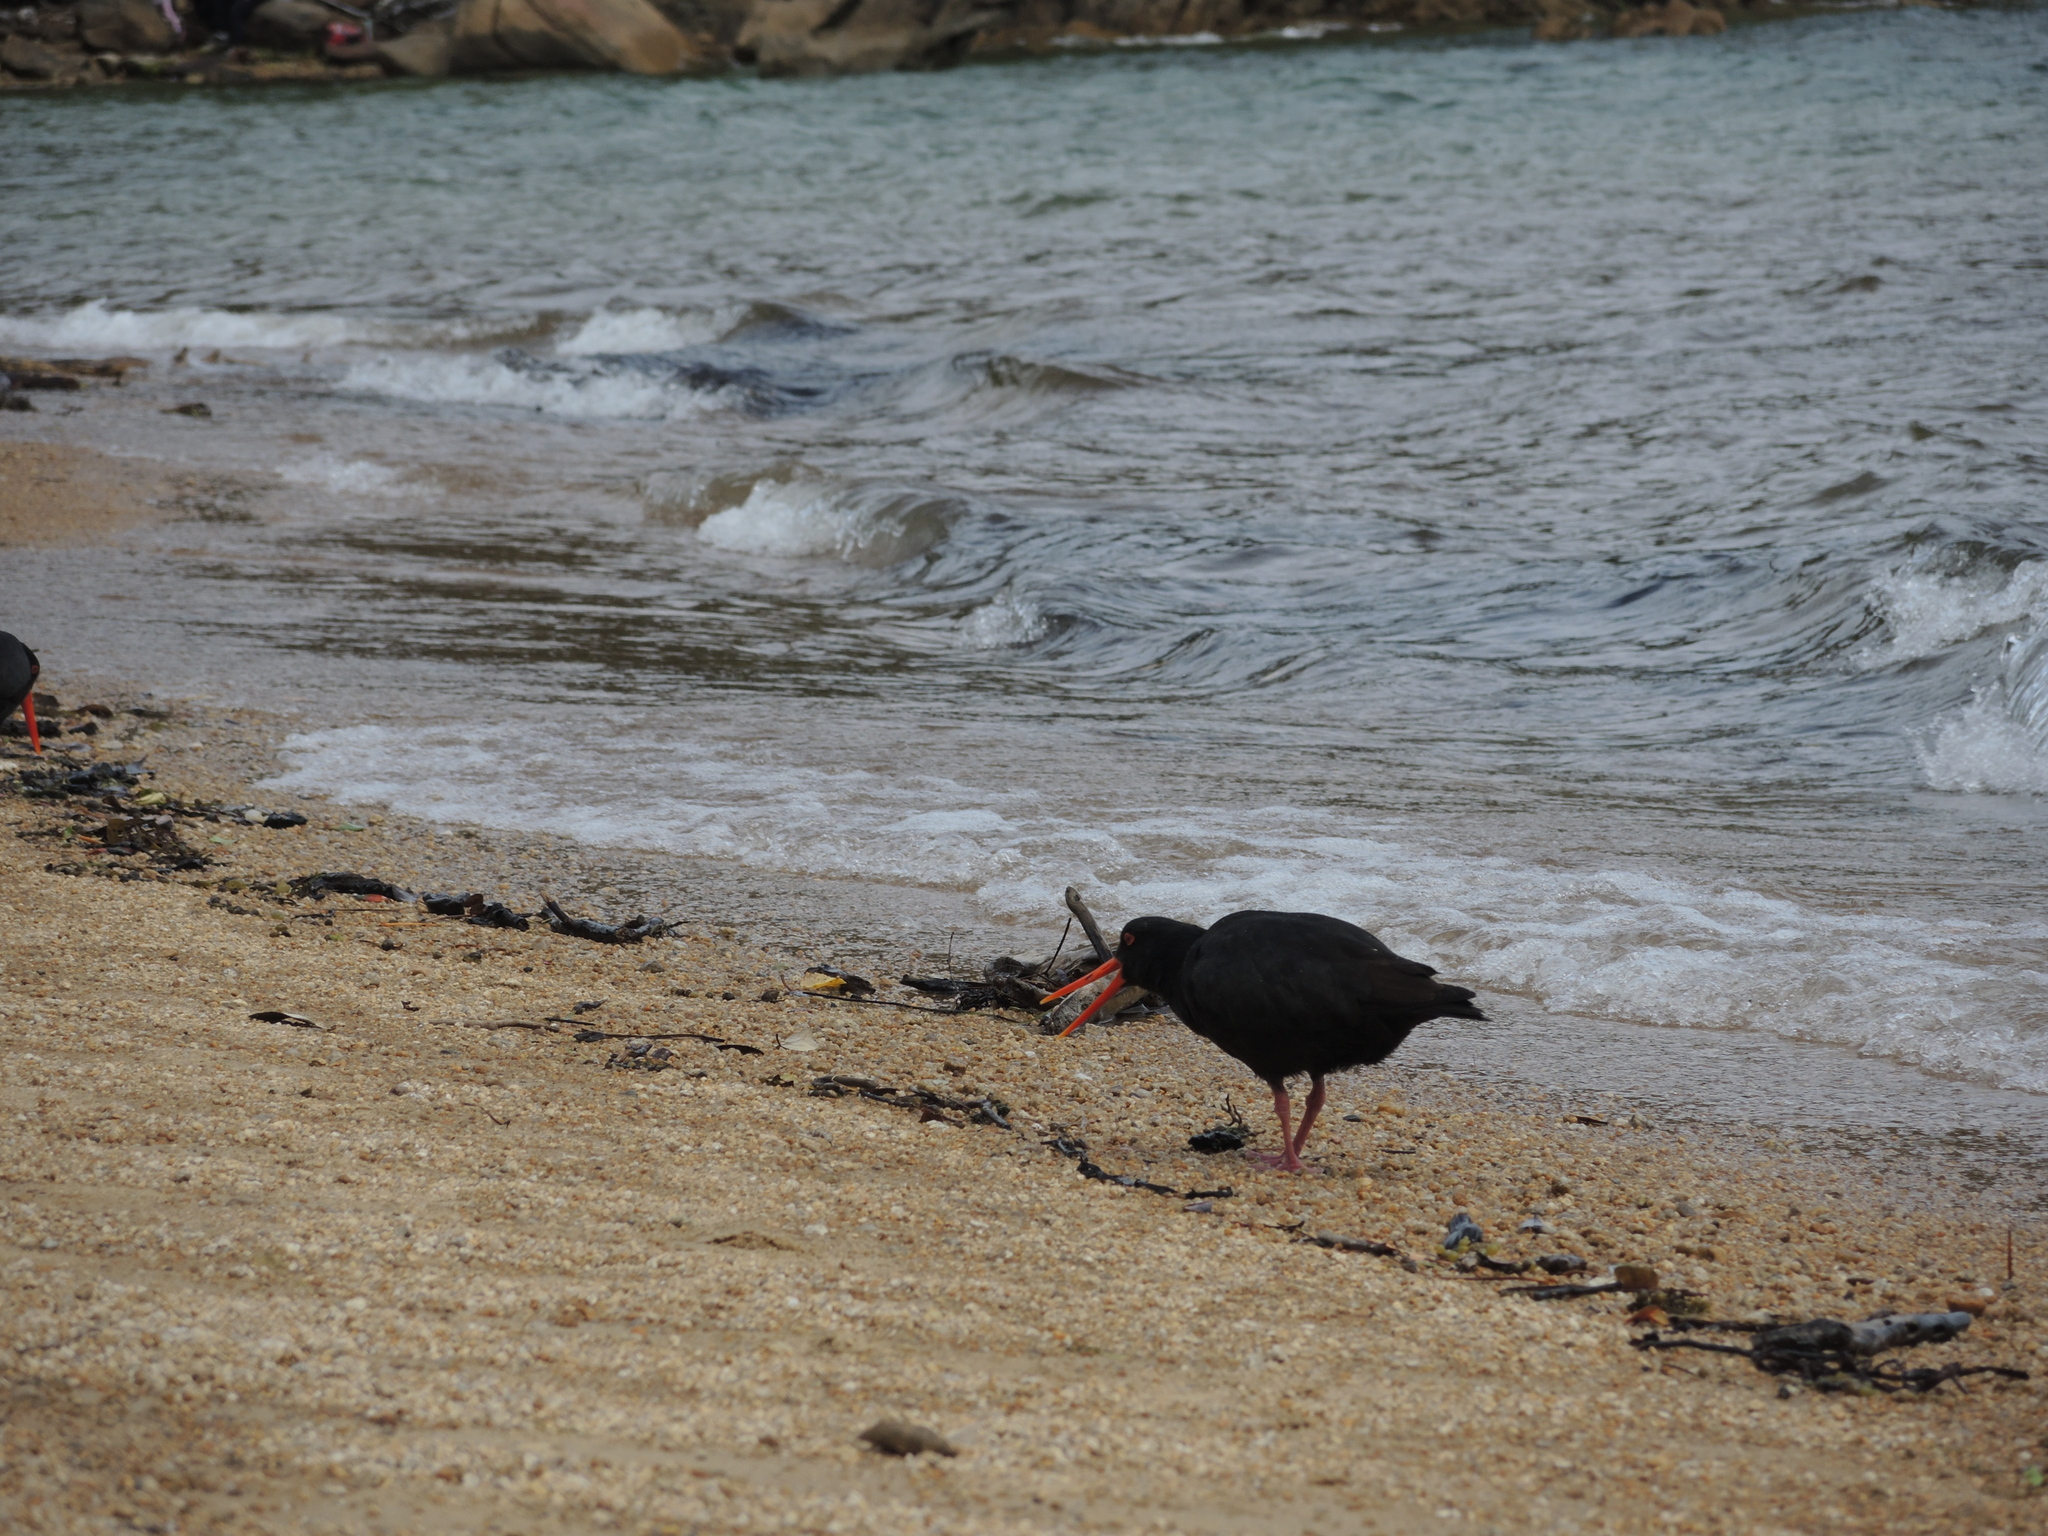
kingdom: Animalia
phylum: Chordata
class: Aves
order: Charadriiformes
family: Haematopodidae
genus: Haematopus
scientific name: Haematopus unicolor
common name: Variable oystercatcher
